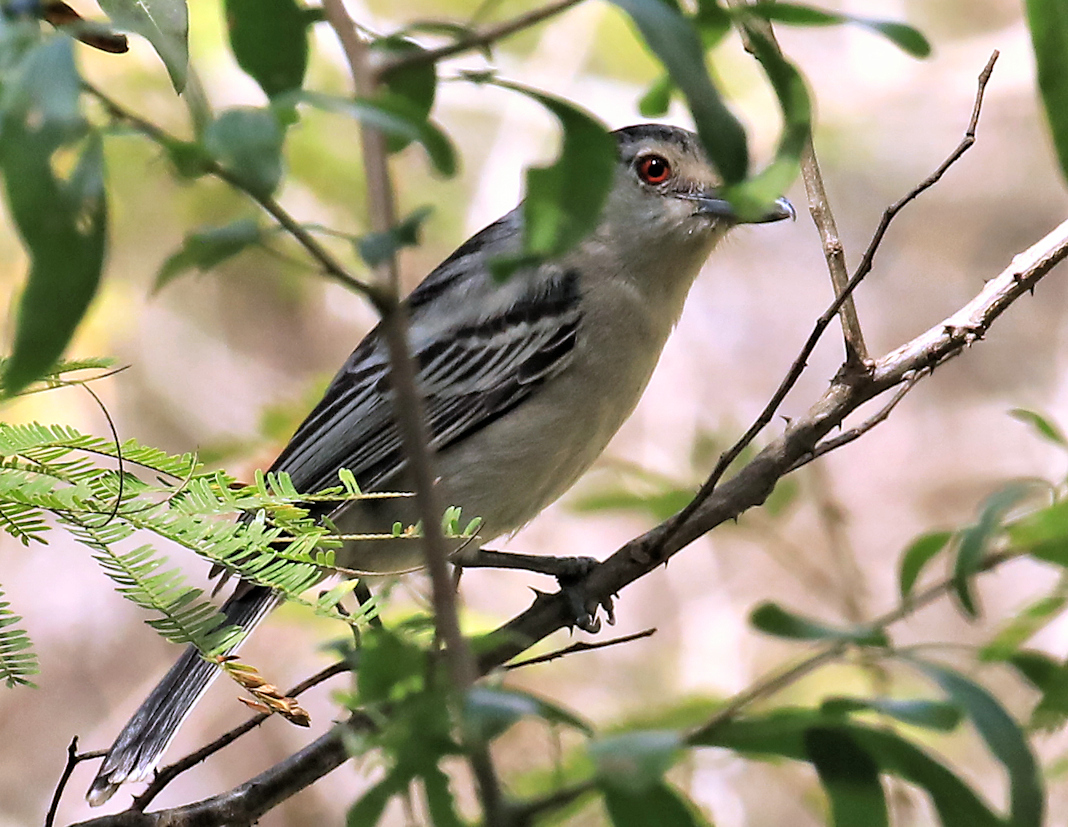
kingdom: Animalia
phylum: Chordata
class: Aves
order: Passeriformes
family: Malaconotidae
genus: Dryoscopus
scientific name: Dryoscopus cubla
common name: Black-backed puffback
